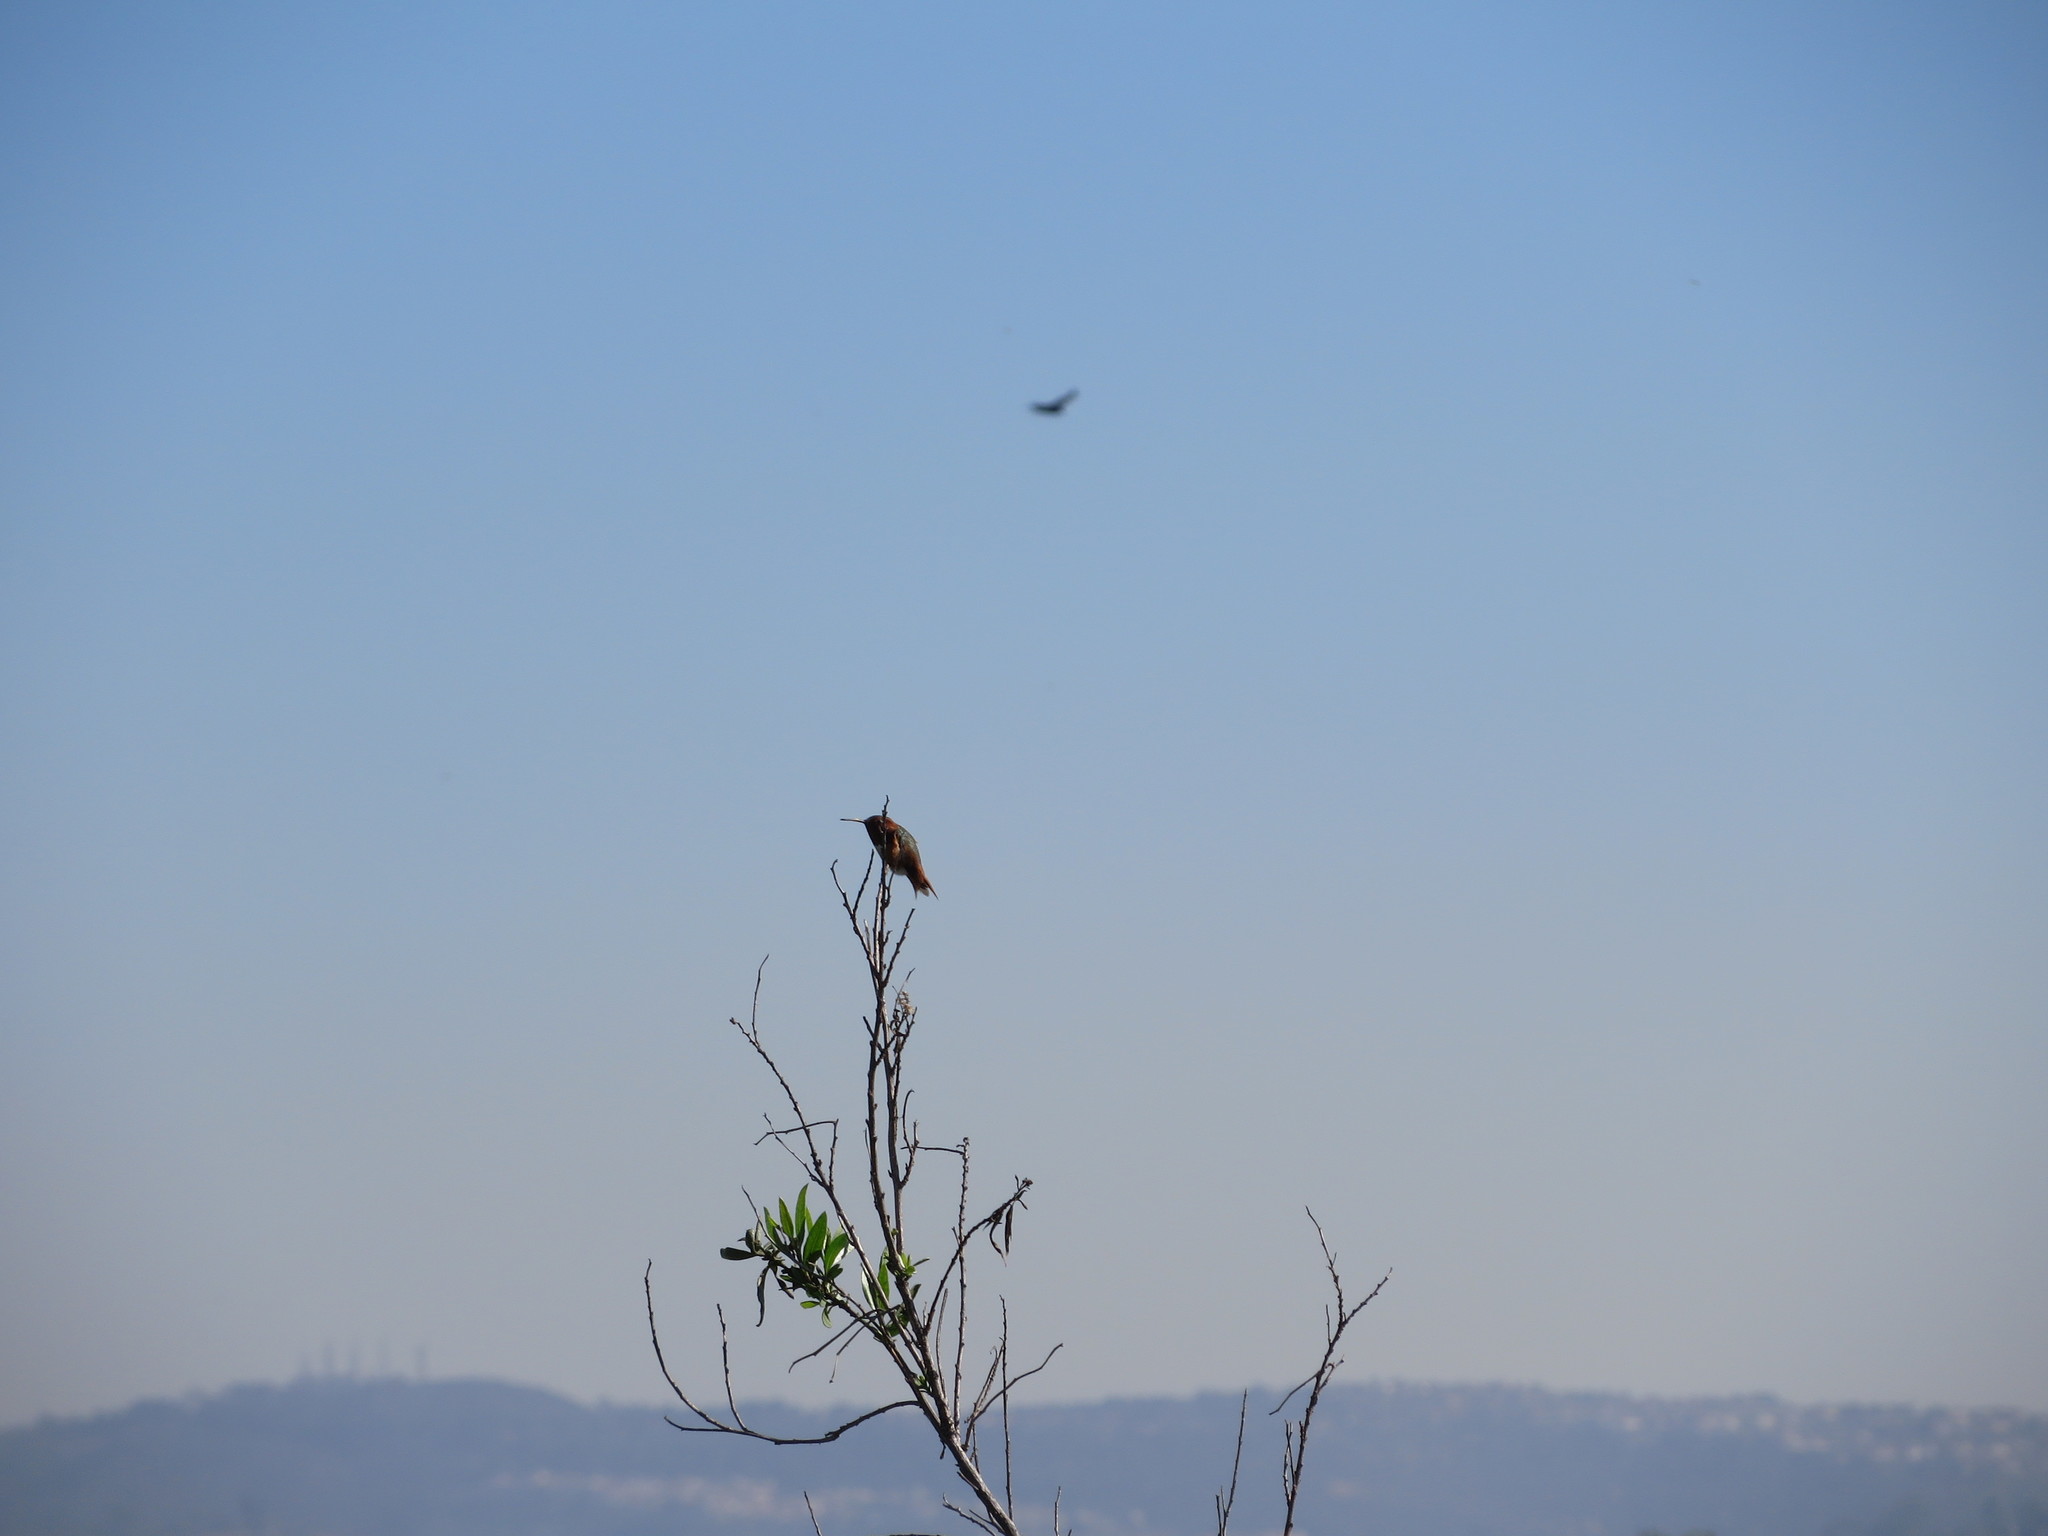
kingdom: Animalia
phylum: Chordata
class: Aves
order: Apodiformes
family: Trochilidae
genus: Selasphorus
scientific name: Selasphorus sasin
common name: Allen's hummingbird
